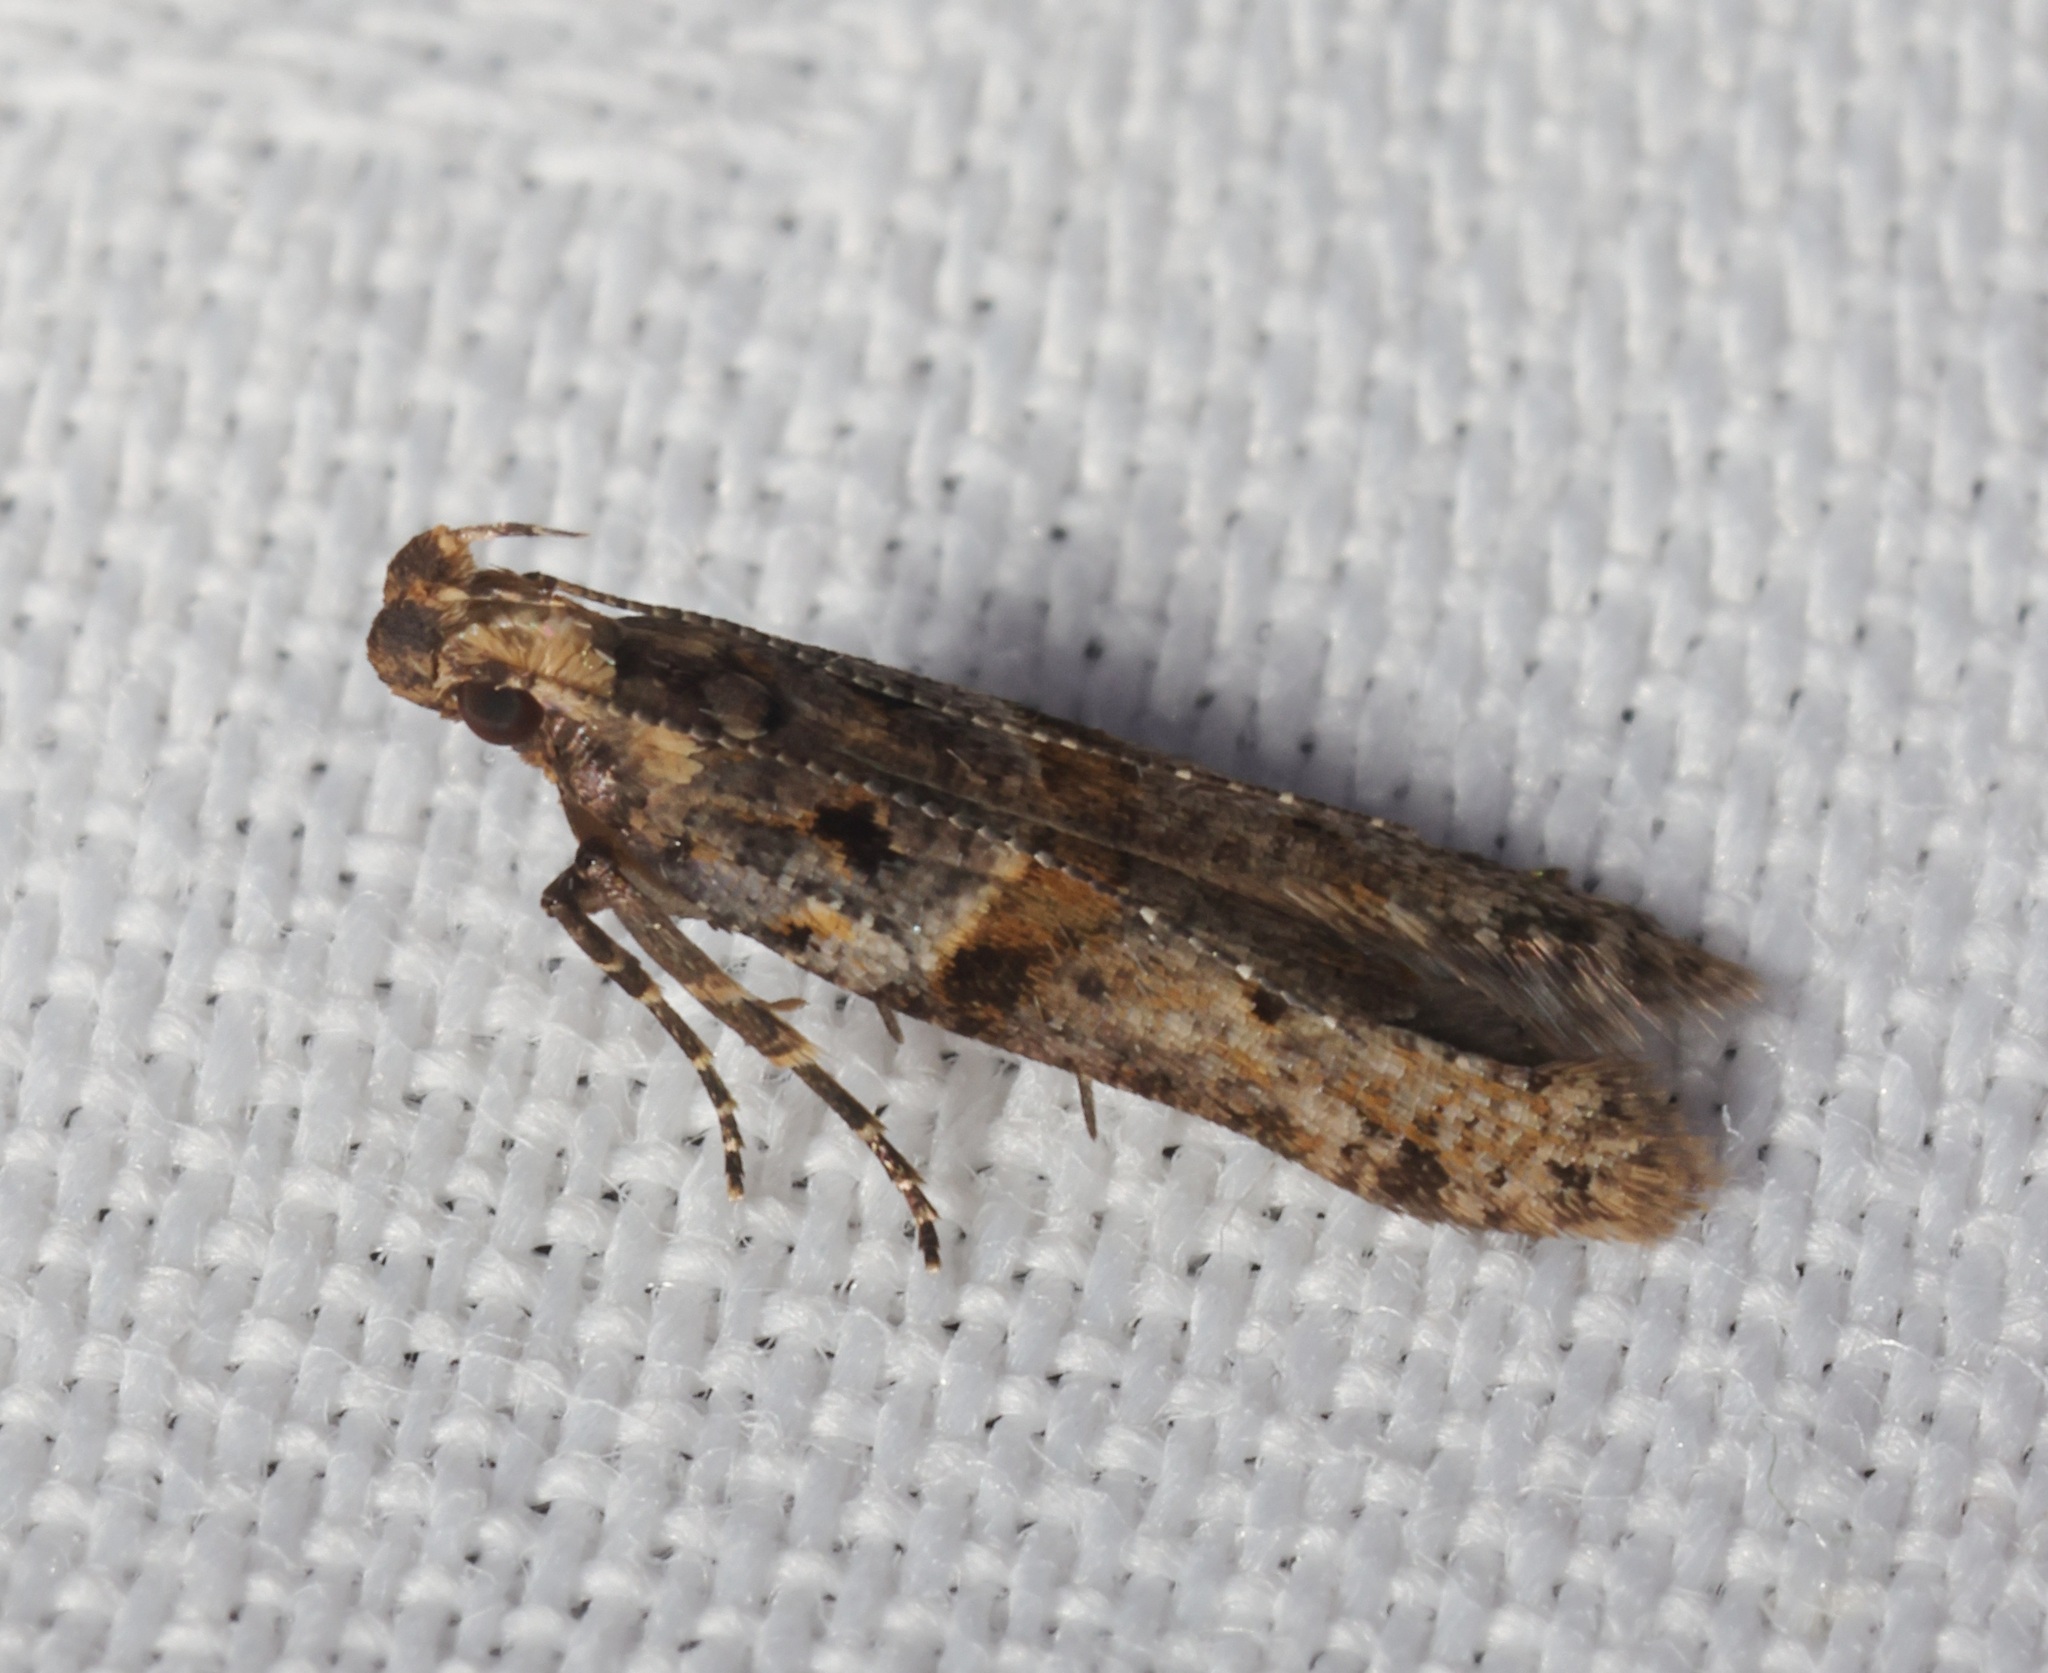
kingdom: Animalia
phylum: Arthropoda
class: Insecta
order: Lepidoptera
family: Gelechiidae
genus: Deltophora
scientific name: Deltophora polliniferens
